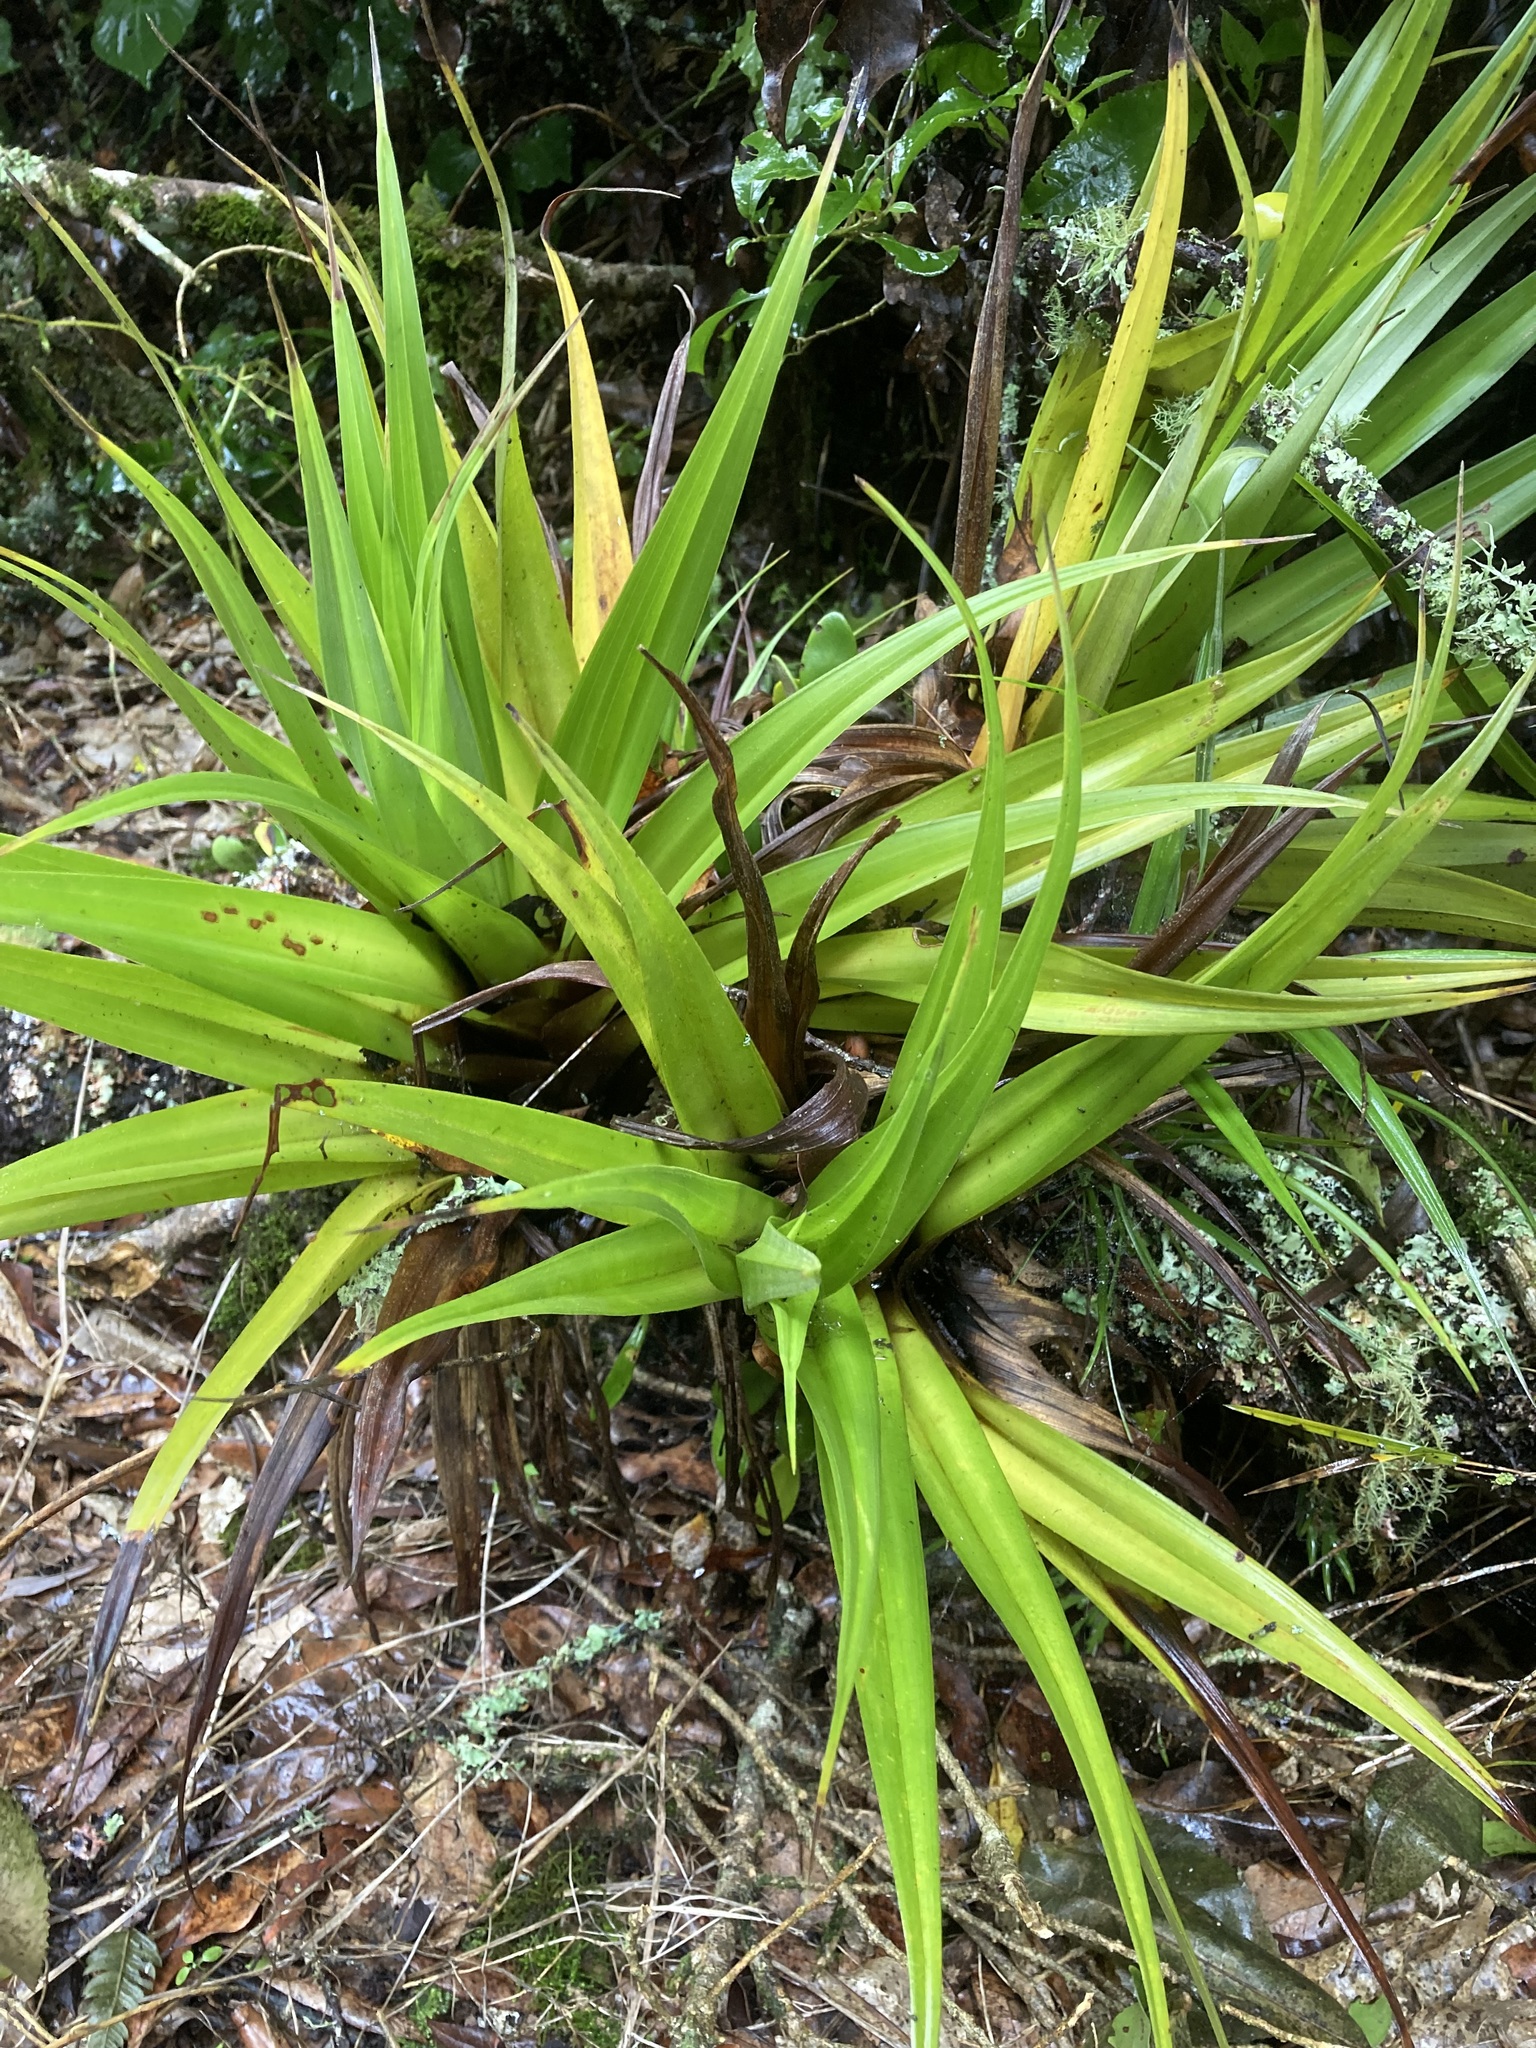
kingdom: Plantae
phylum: Tracheophyta
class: Liliopsida
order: Asparagales
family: Asteliaceae
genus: Astelia
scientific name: Astelia hastata
